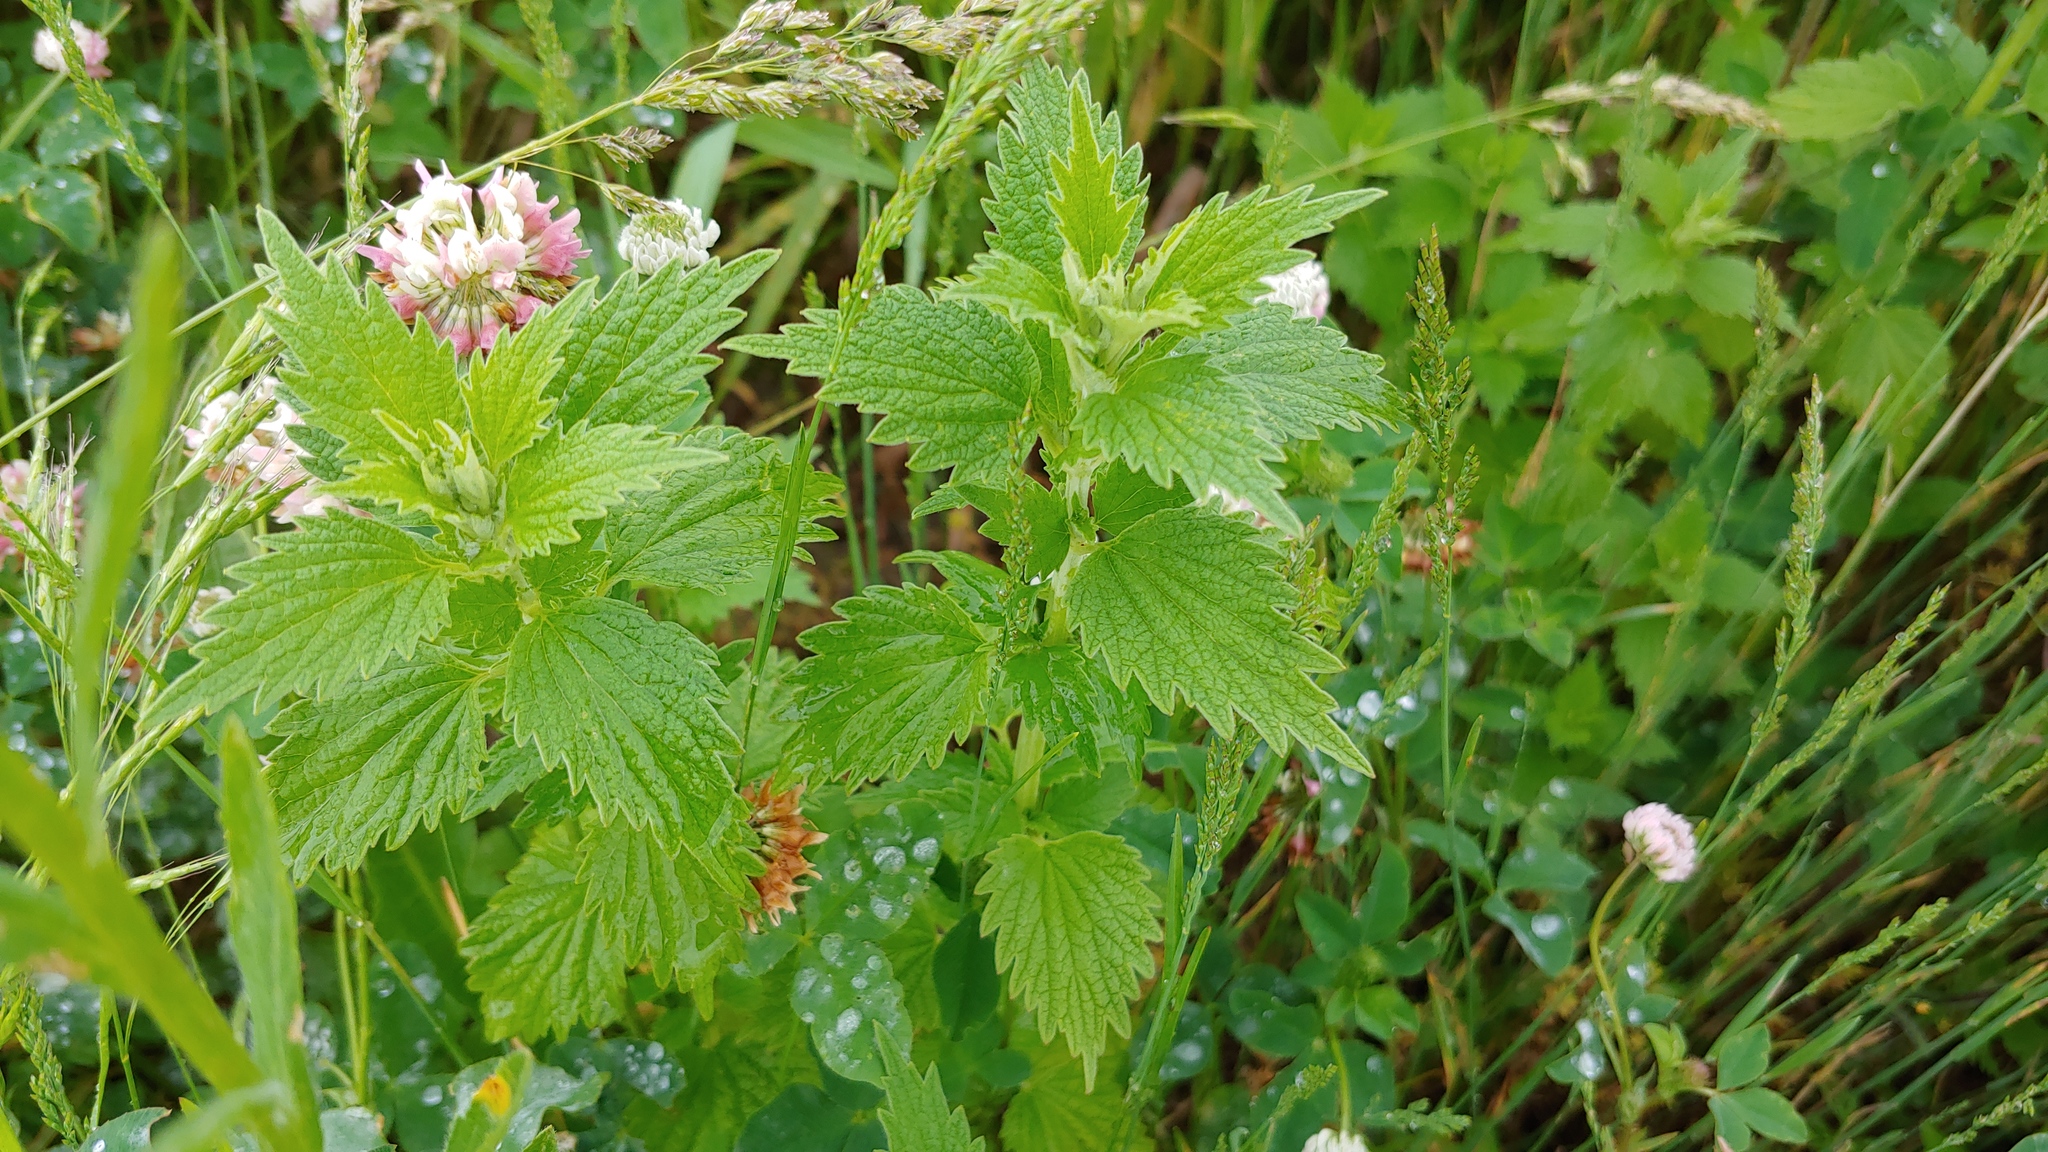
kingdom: Plantae
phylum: Tracheophyta
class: Magnoliopsida
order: Rosales
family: Urticaceae
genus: Urtica
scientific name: Urtica gracilis
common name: Slender stinging nettle
